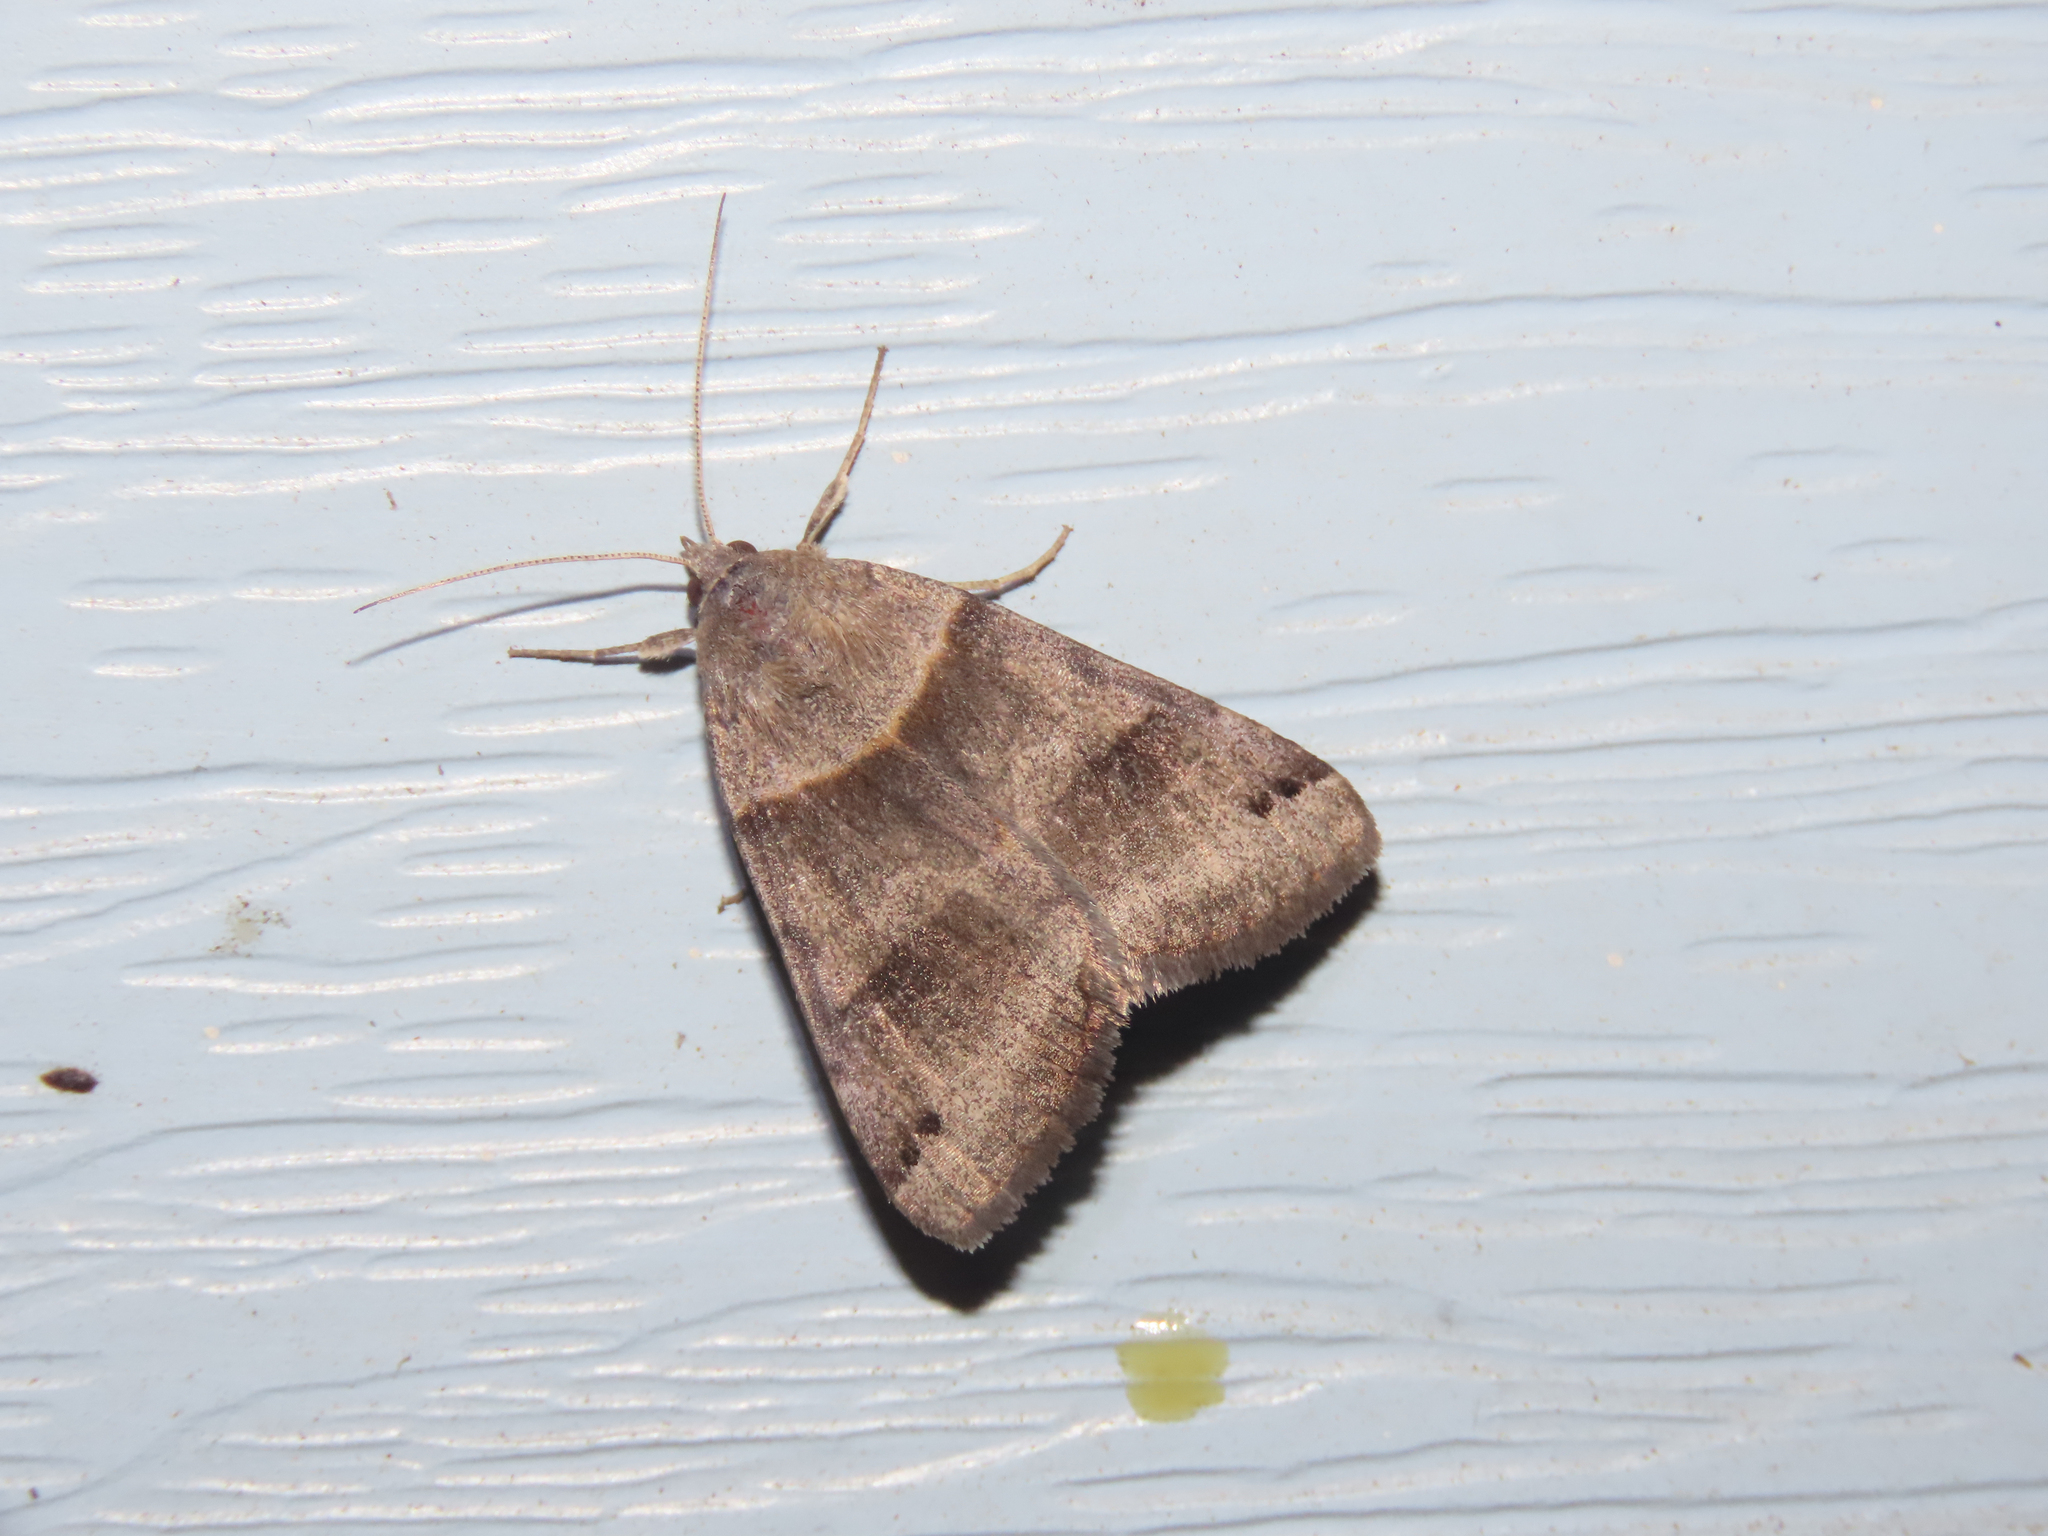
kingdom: Animalia
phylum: Arthropoda
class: Insecta
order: Lepidoptera
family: Erebidae
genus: Caenurgina
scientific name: Caenurgina crassiuscula
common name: Double-barred
